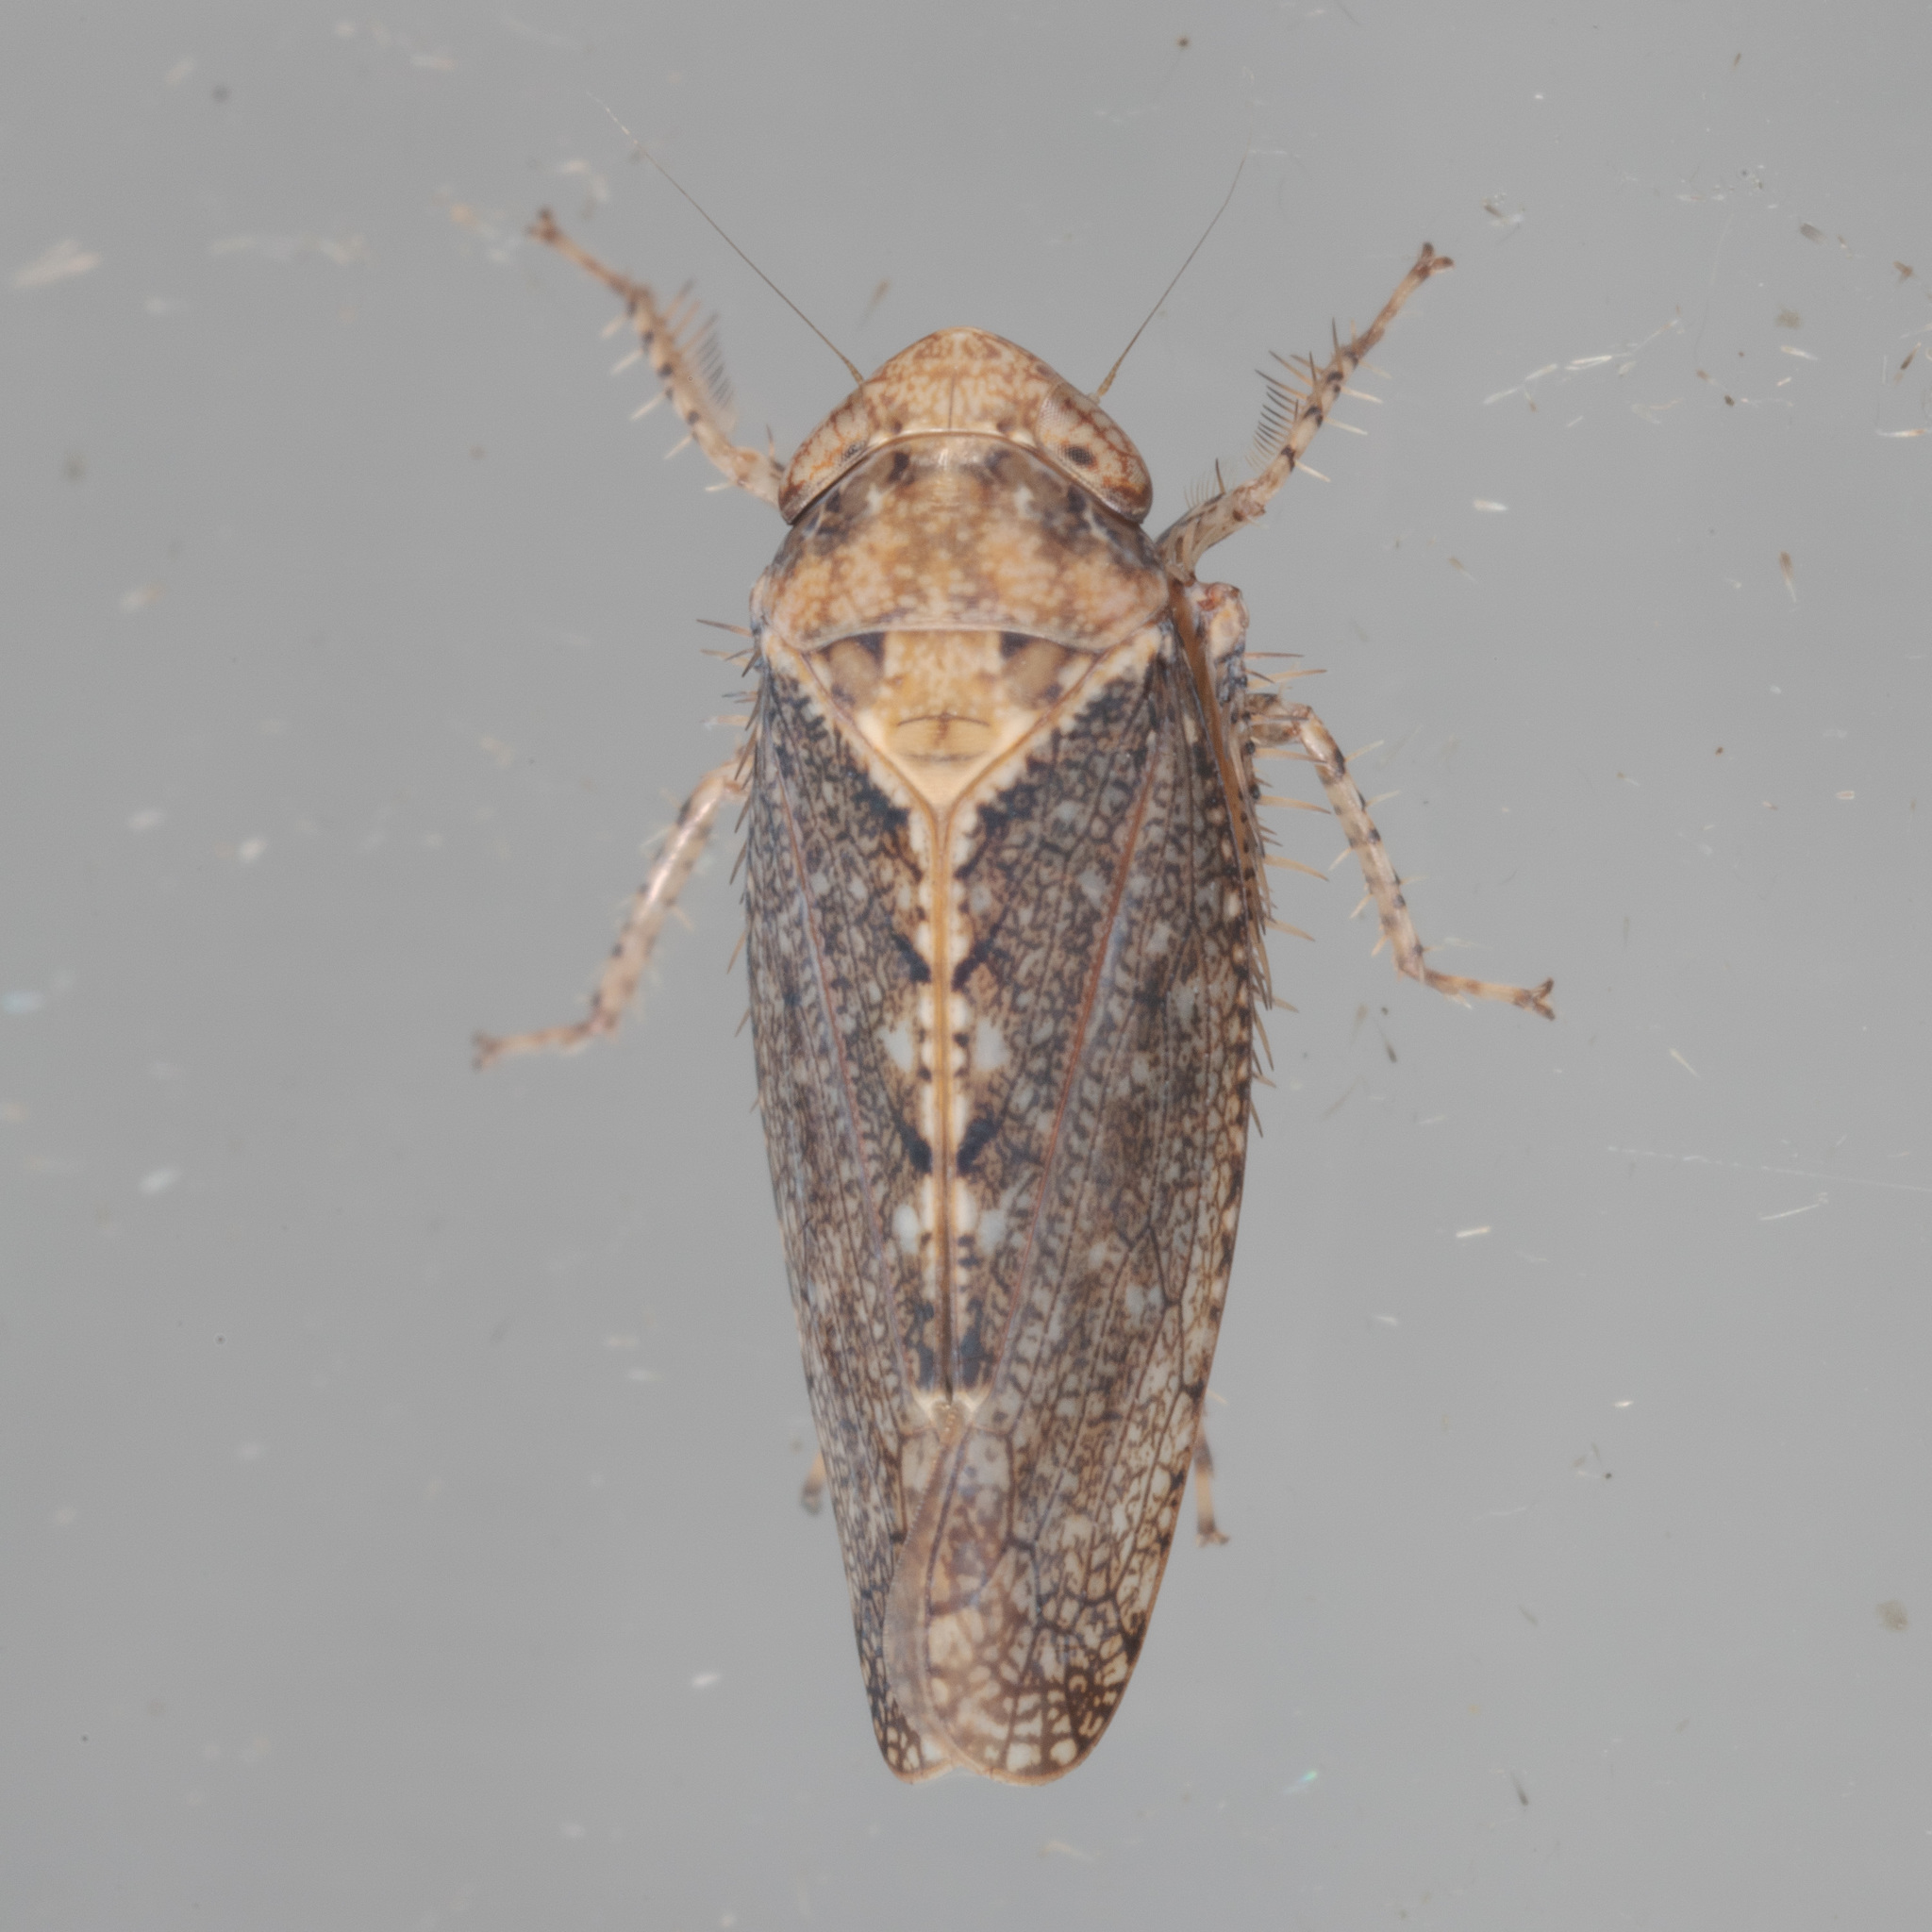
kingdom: Animalia
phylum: Arthropoda
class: Insecta
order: Hemiptera
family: Cicadellidae
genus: Excultanus
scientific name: Excultanus excultus
